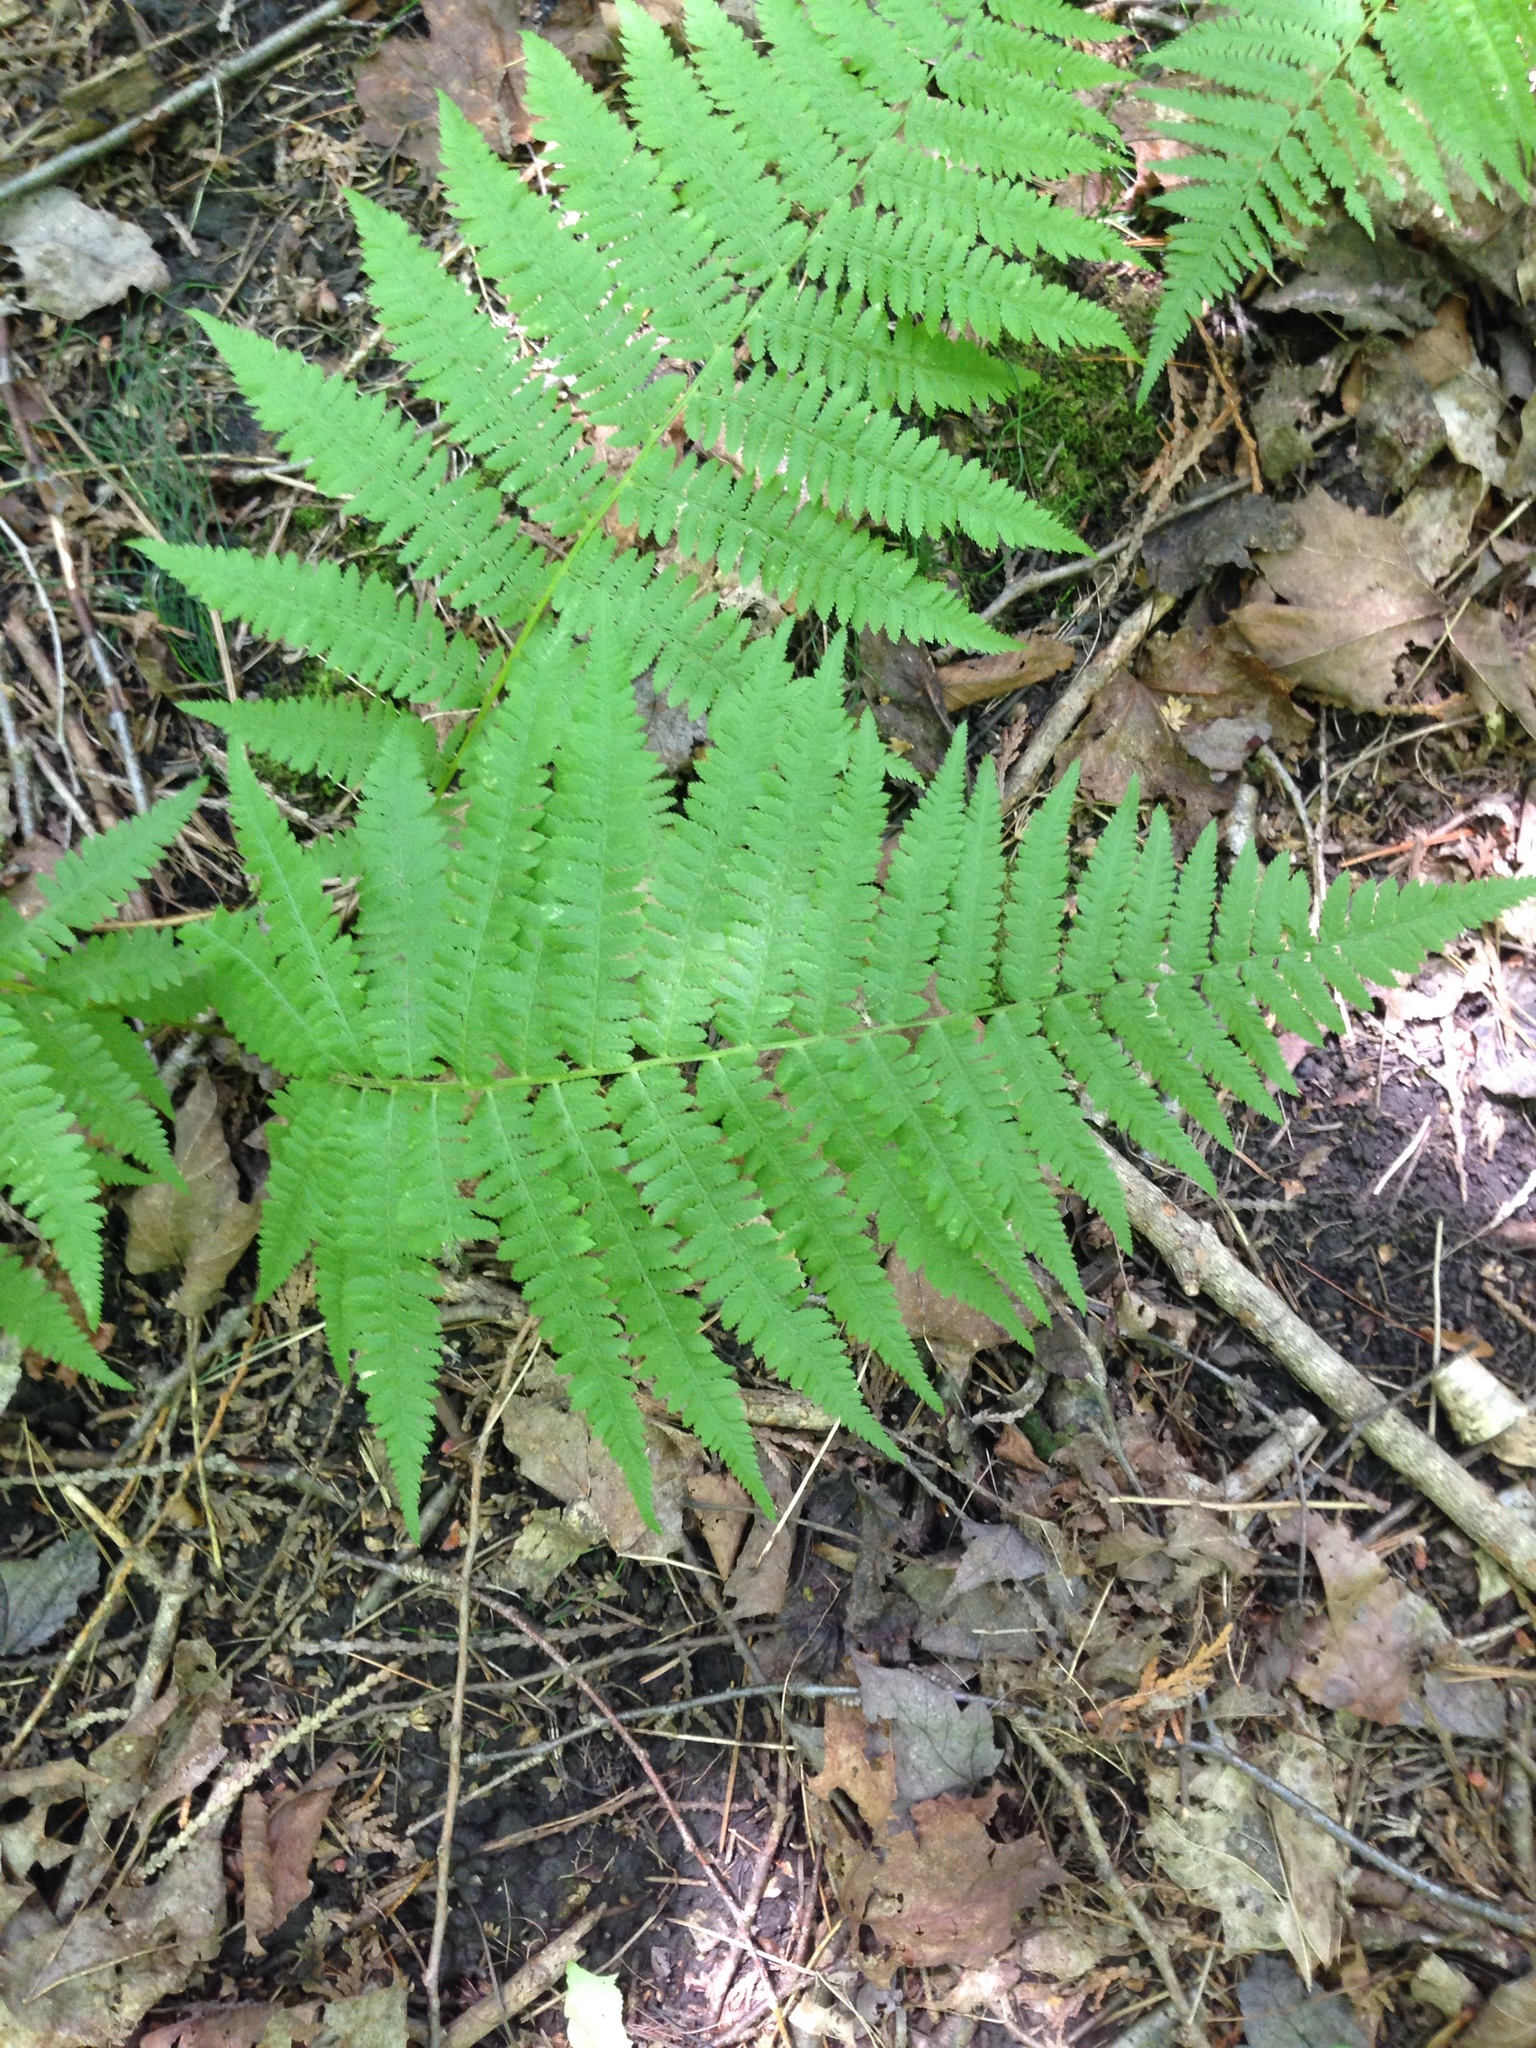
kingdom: Plantae
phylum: Tracheophyta
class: Polypodiopsida
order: Polypodiales
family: Athyriaceae
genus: Athyrium
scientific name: Athyrium angustum
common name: Northern lady fern
